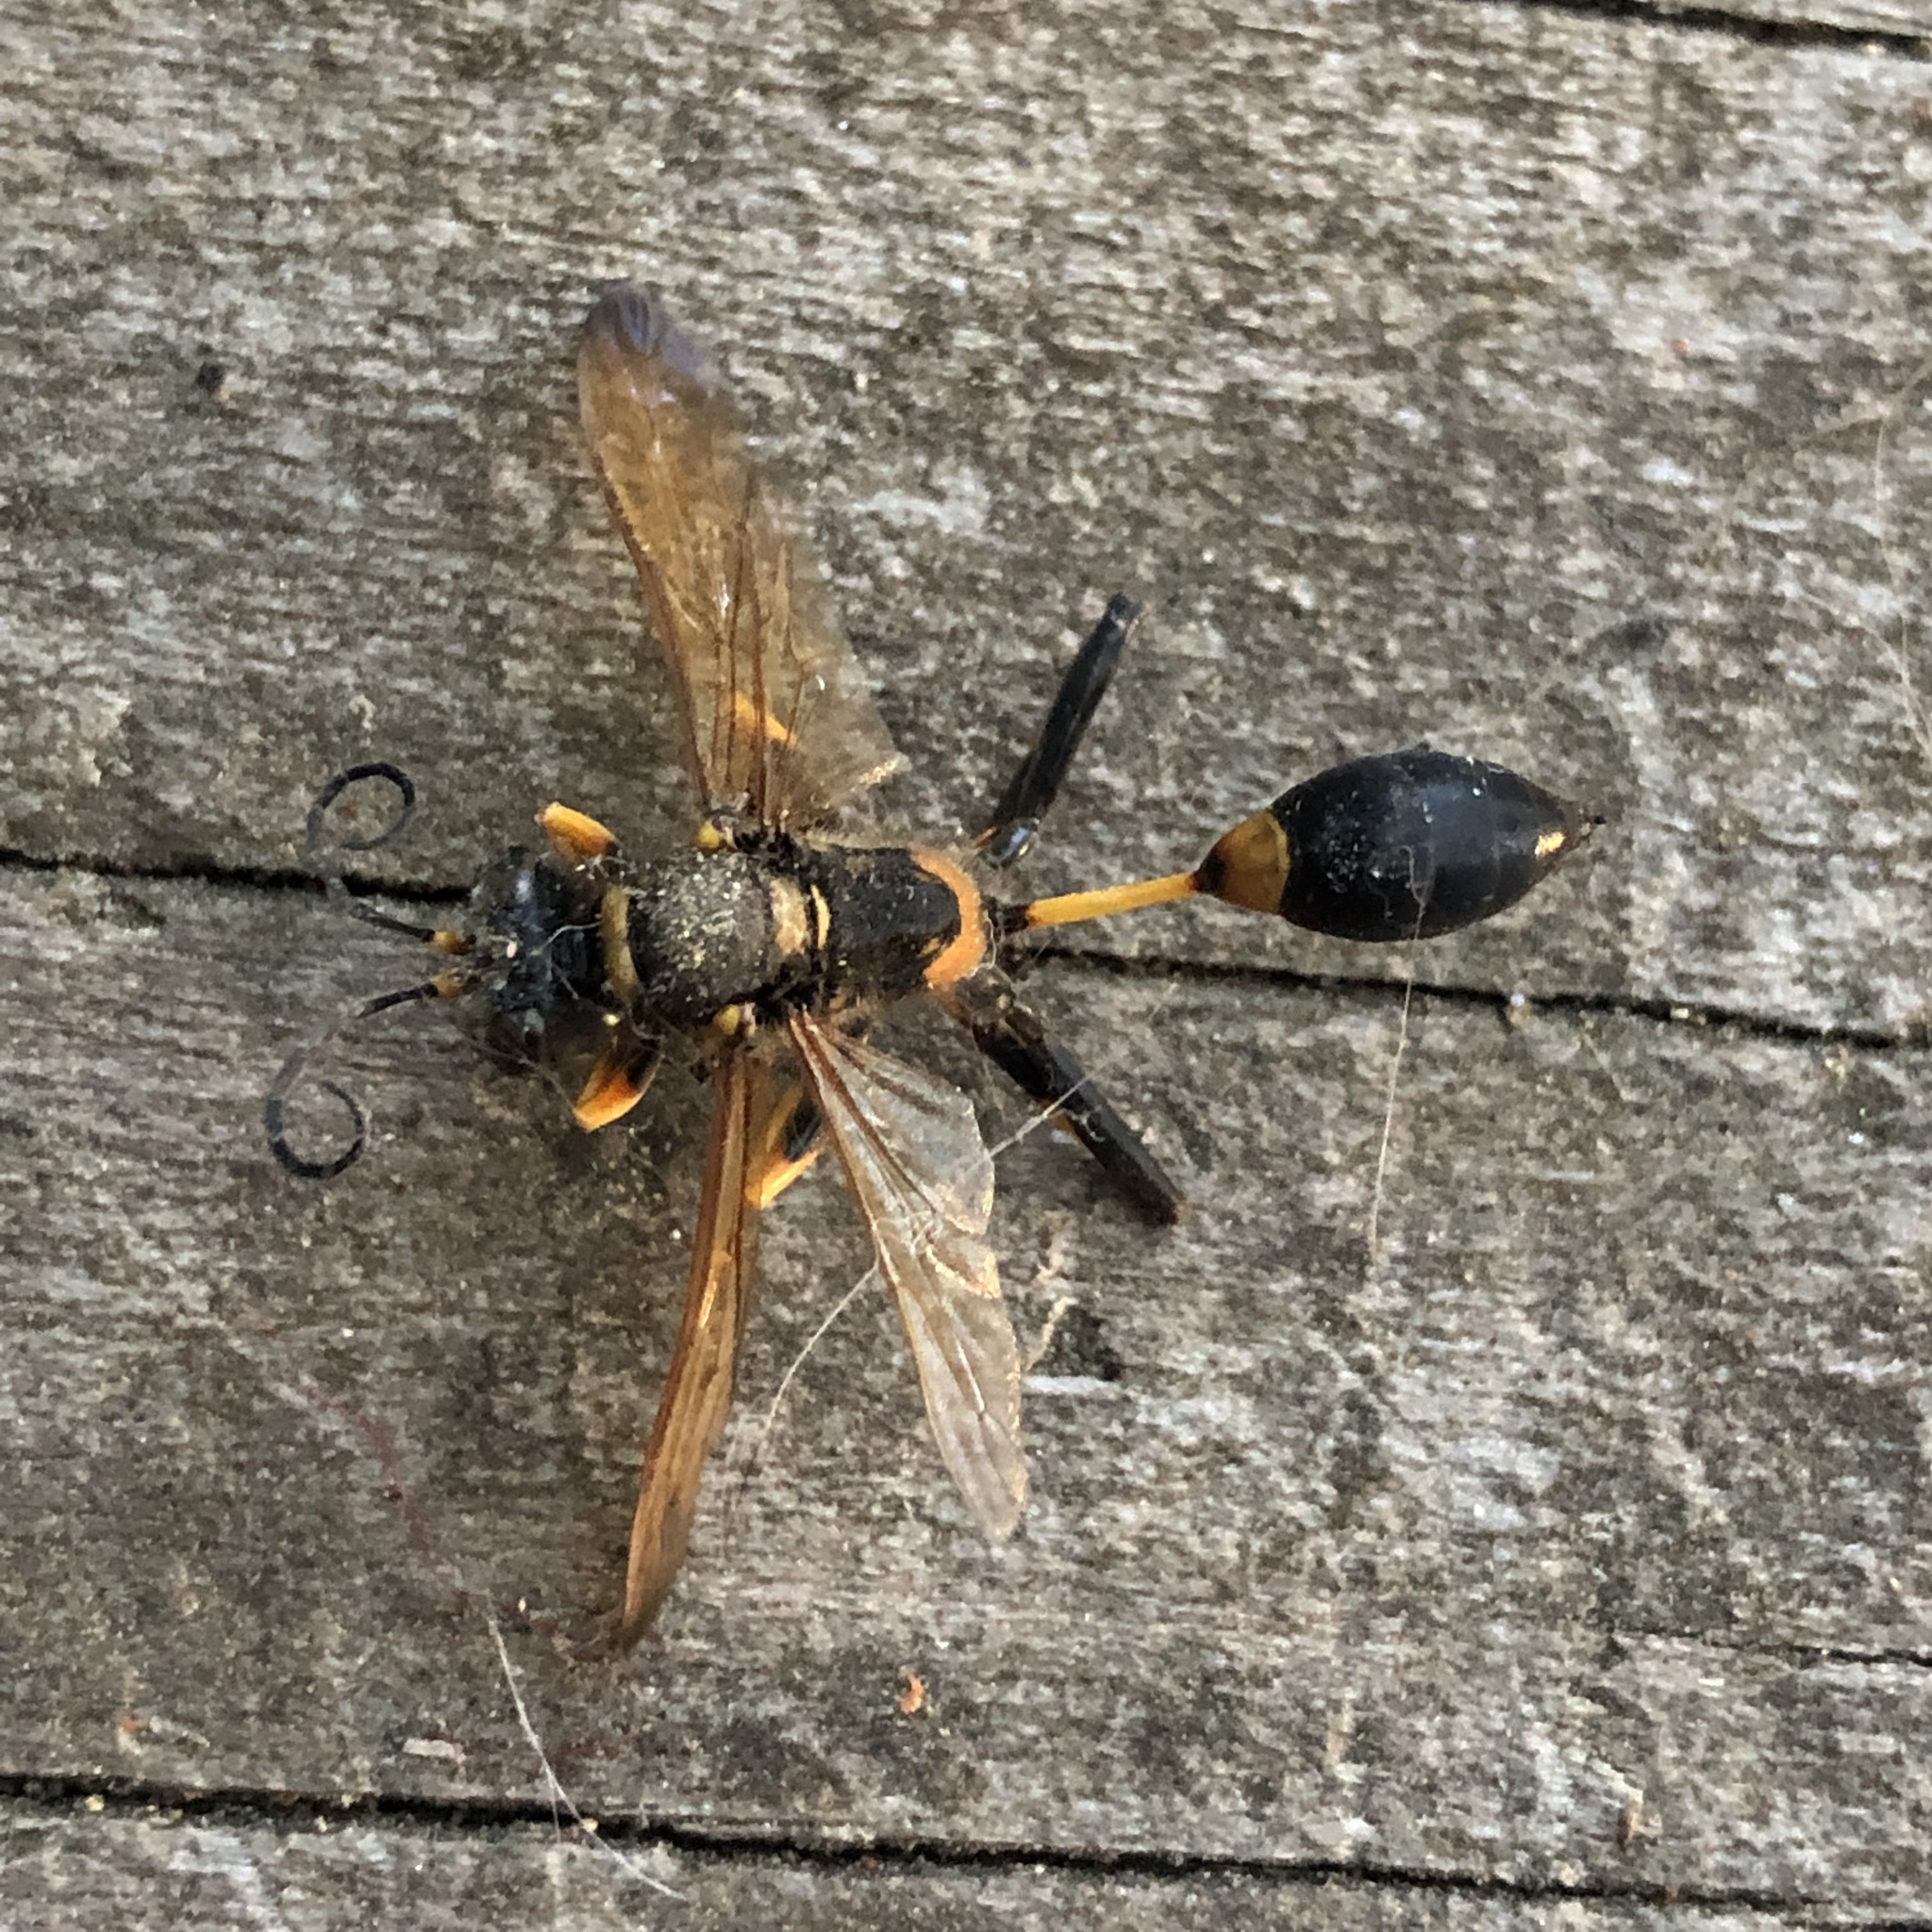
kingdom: Animalia
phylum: Arthropoda
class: Insecta
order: Hymenoptera
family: Sphecidae
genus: Sceliphron
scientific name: Sceliphron caementarium
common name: Mud dauber
